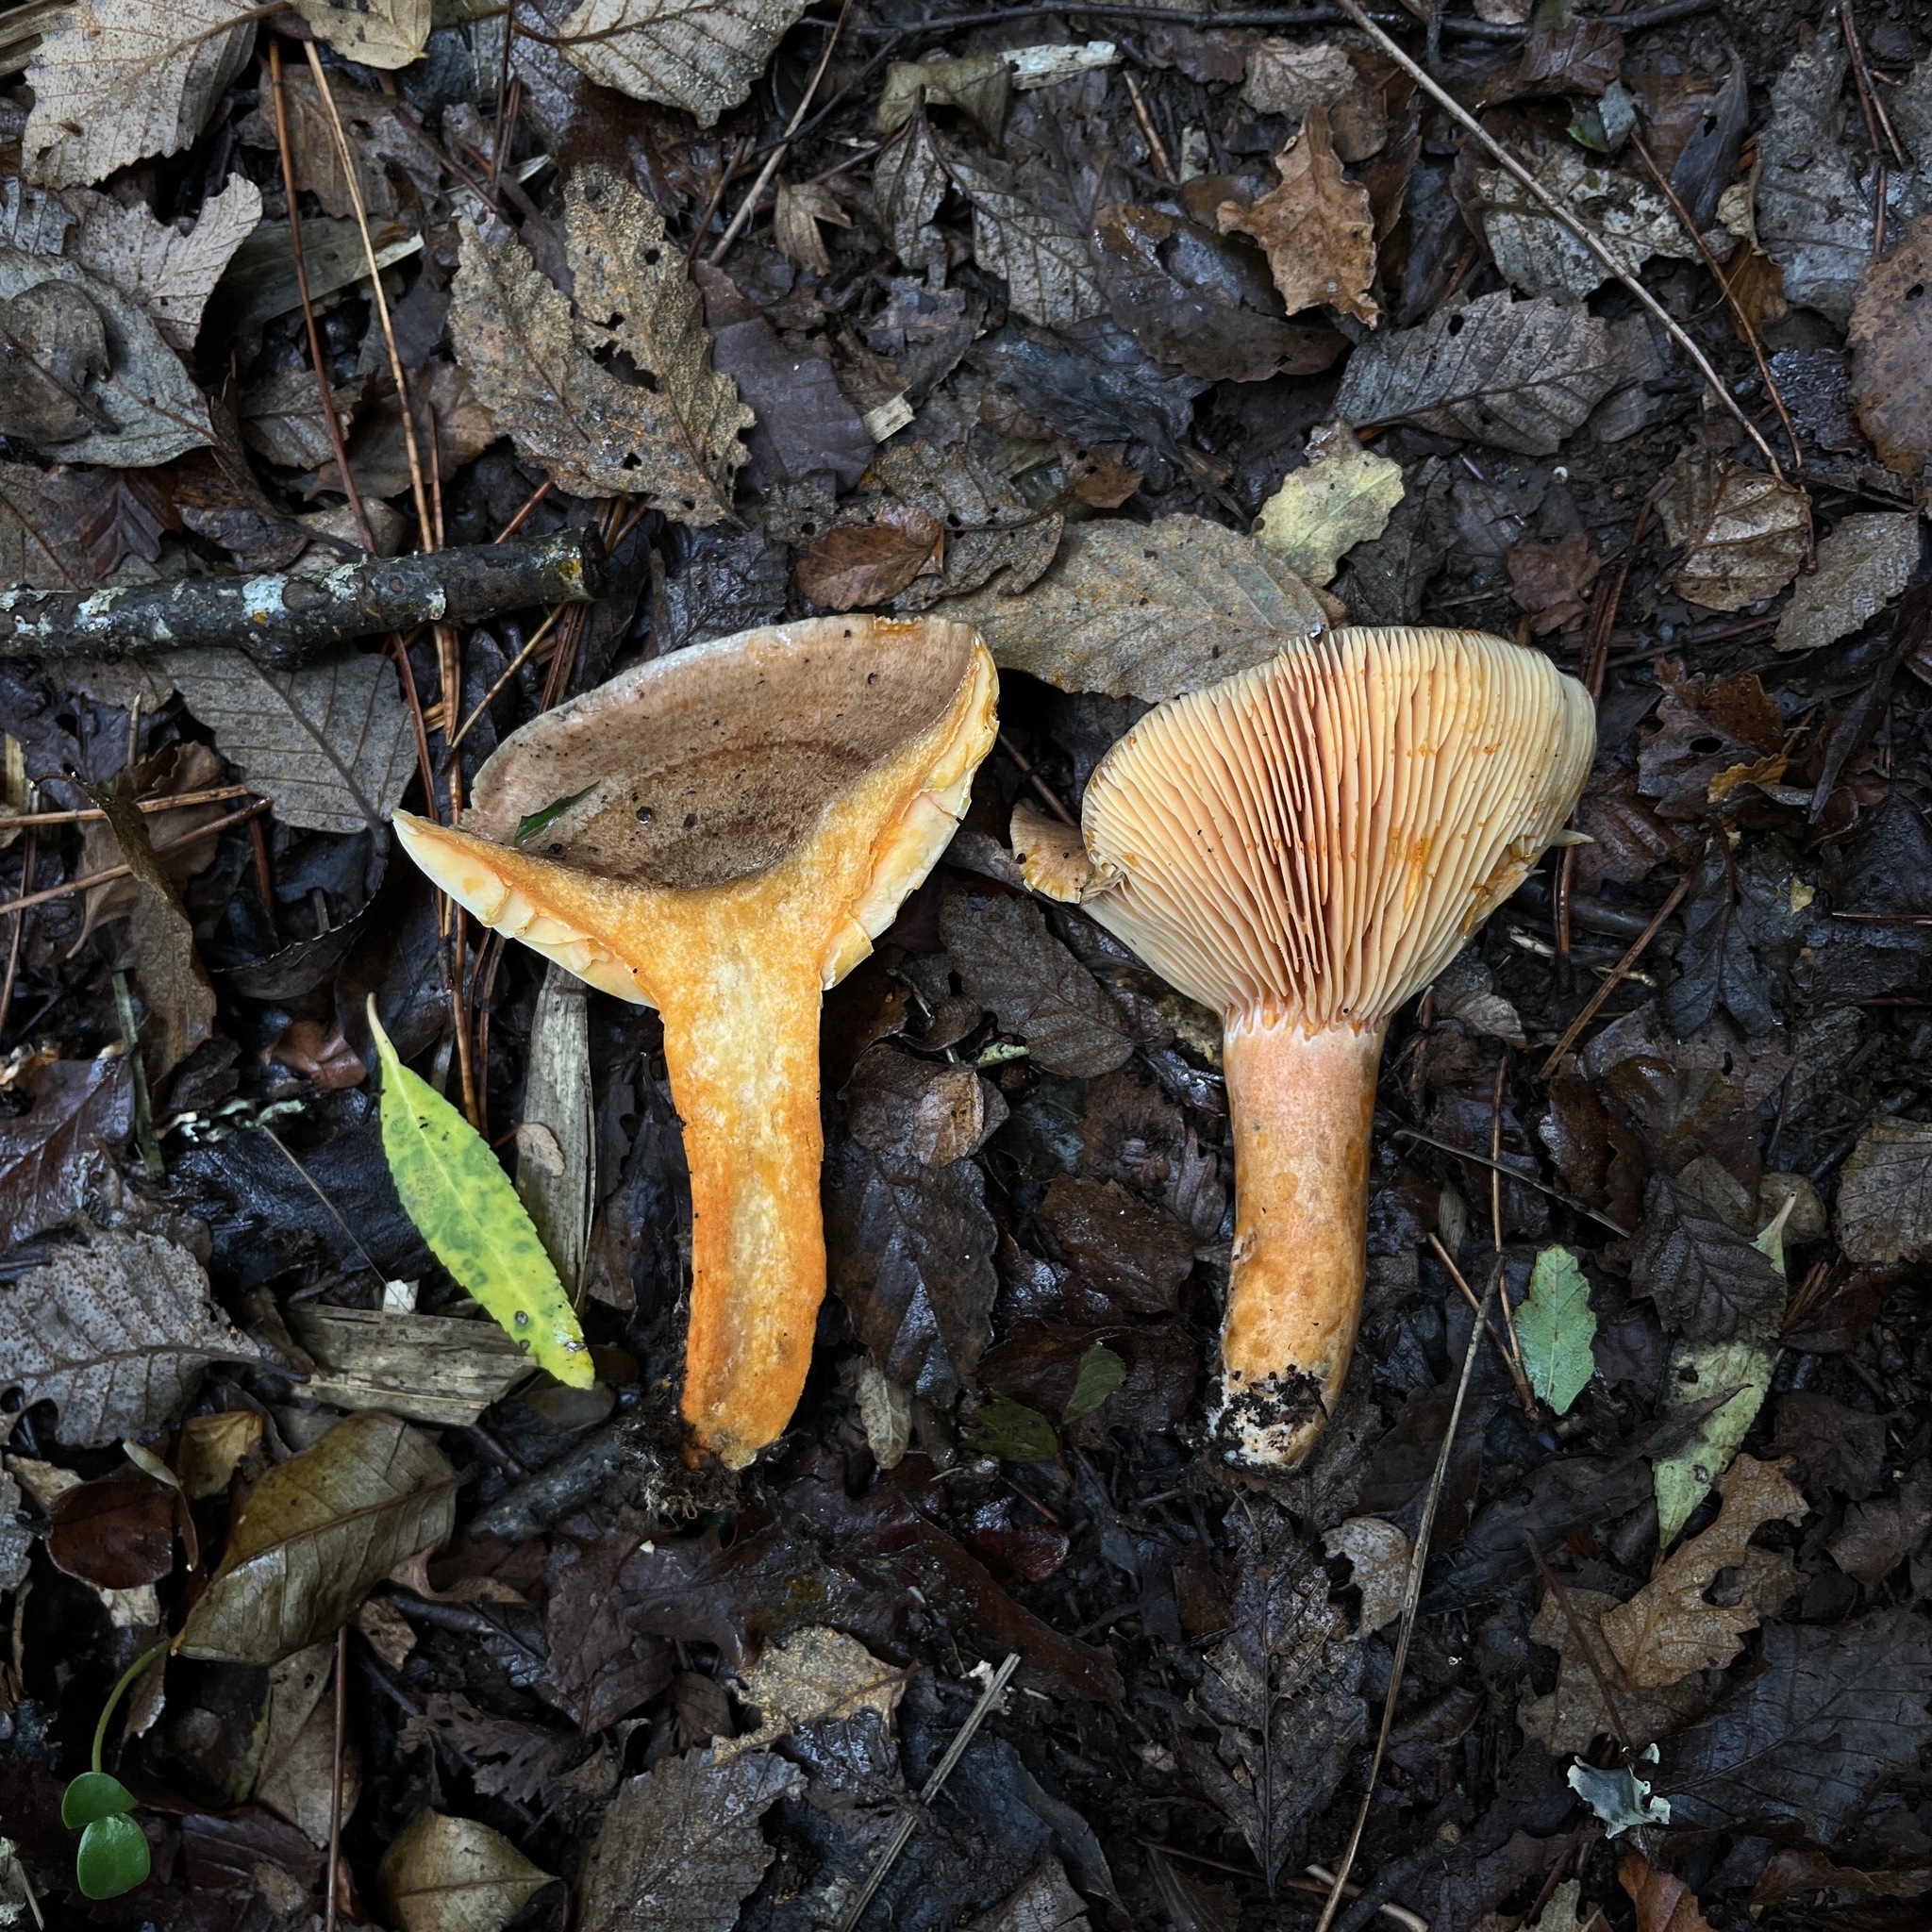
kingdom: Fungi
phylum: Basidiomycota
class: Agaricomycetes
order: Russulales
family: Russulaceae
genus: Lactarius
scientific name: Lactarius quieticolor
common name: Carrot milkcap
